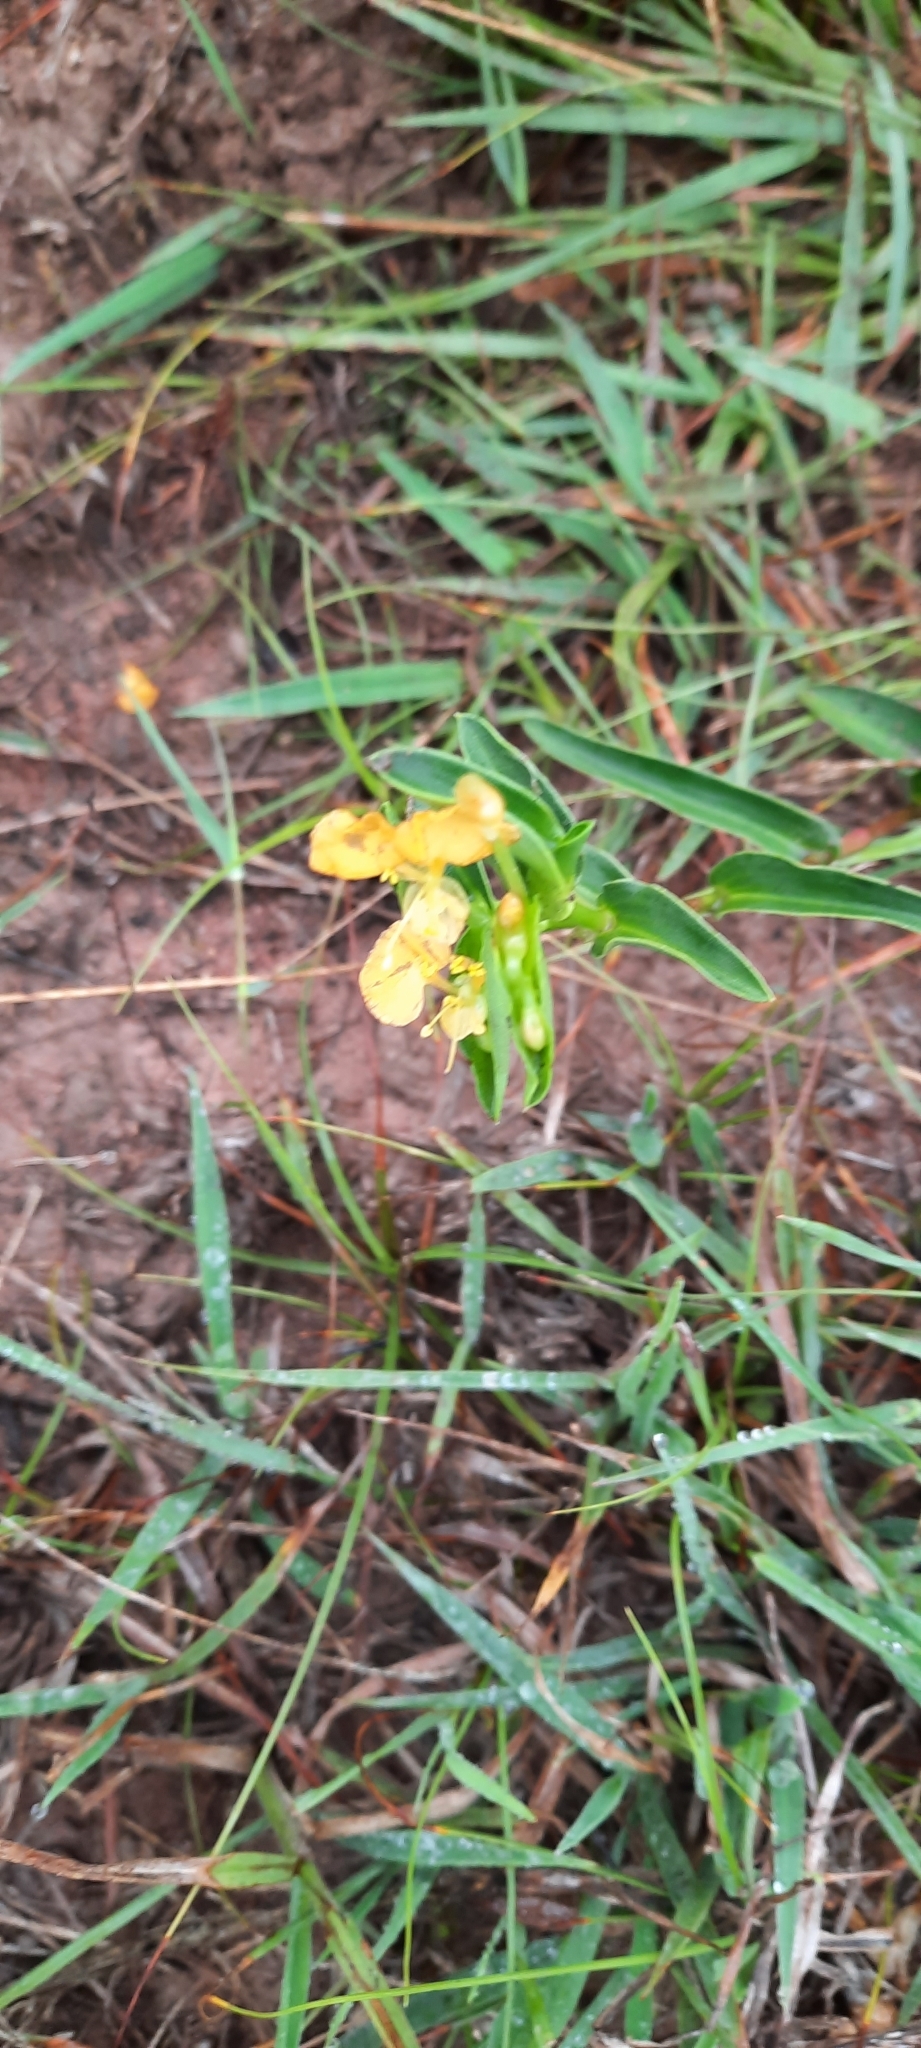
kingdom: Plantae
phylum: Tracheophyta
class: Liliopsida
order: Commelinales
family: Commelinaceae
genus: Commelina
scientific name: Commelina africana
